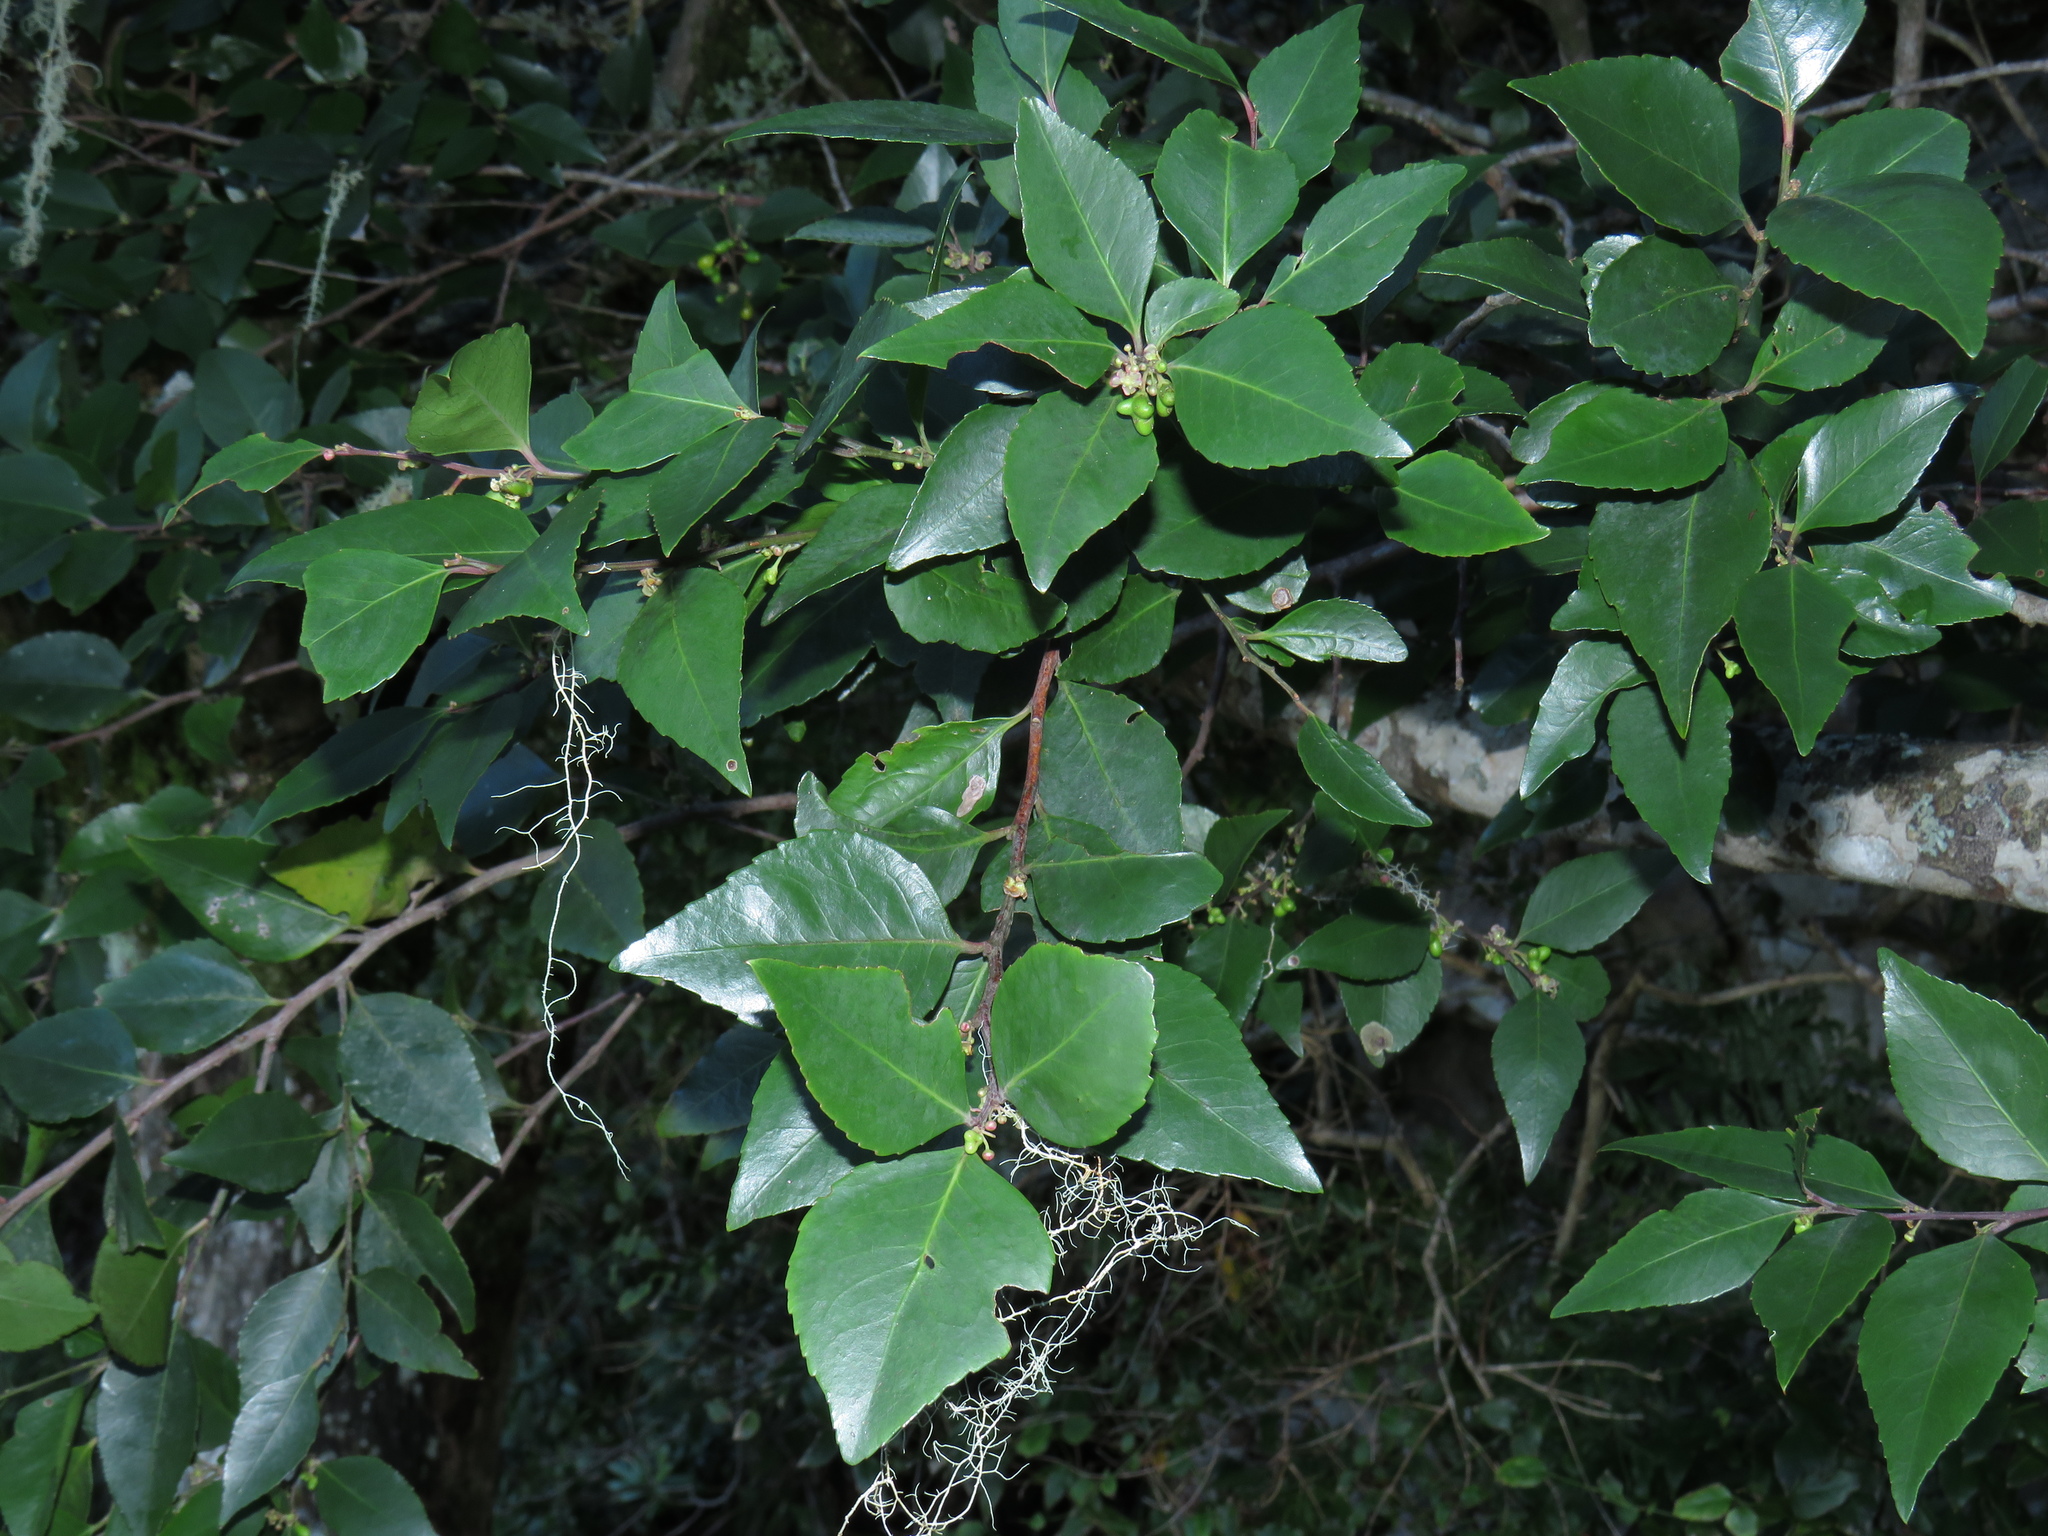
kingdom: Plantae
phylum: Tracheophyta
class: Magnoliopsida
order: Celastrales
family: Celastraceae
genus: Gymnosporia
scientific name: Gymnosporia acuminata
